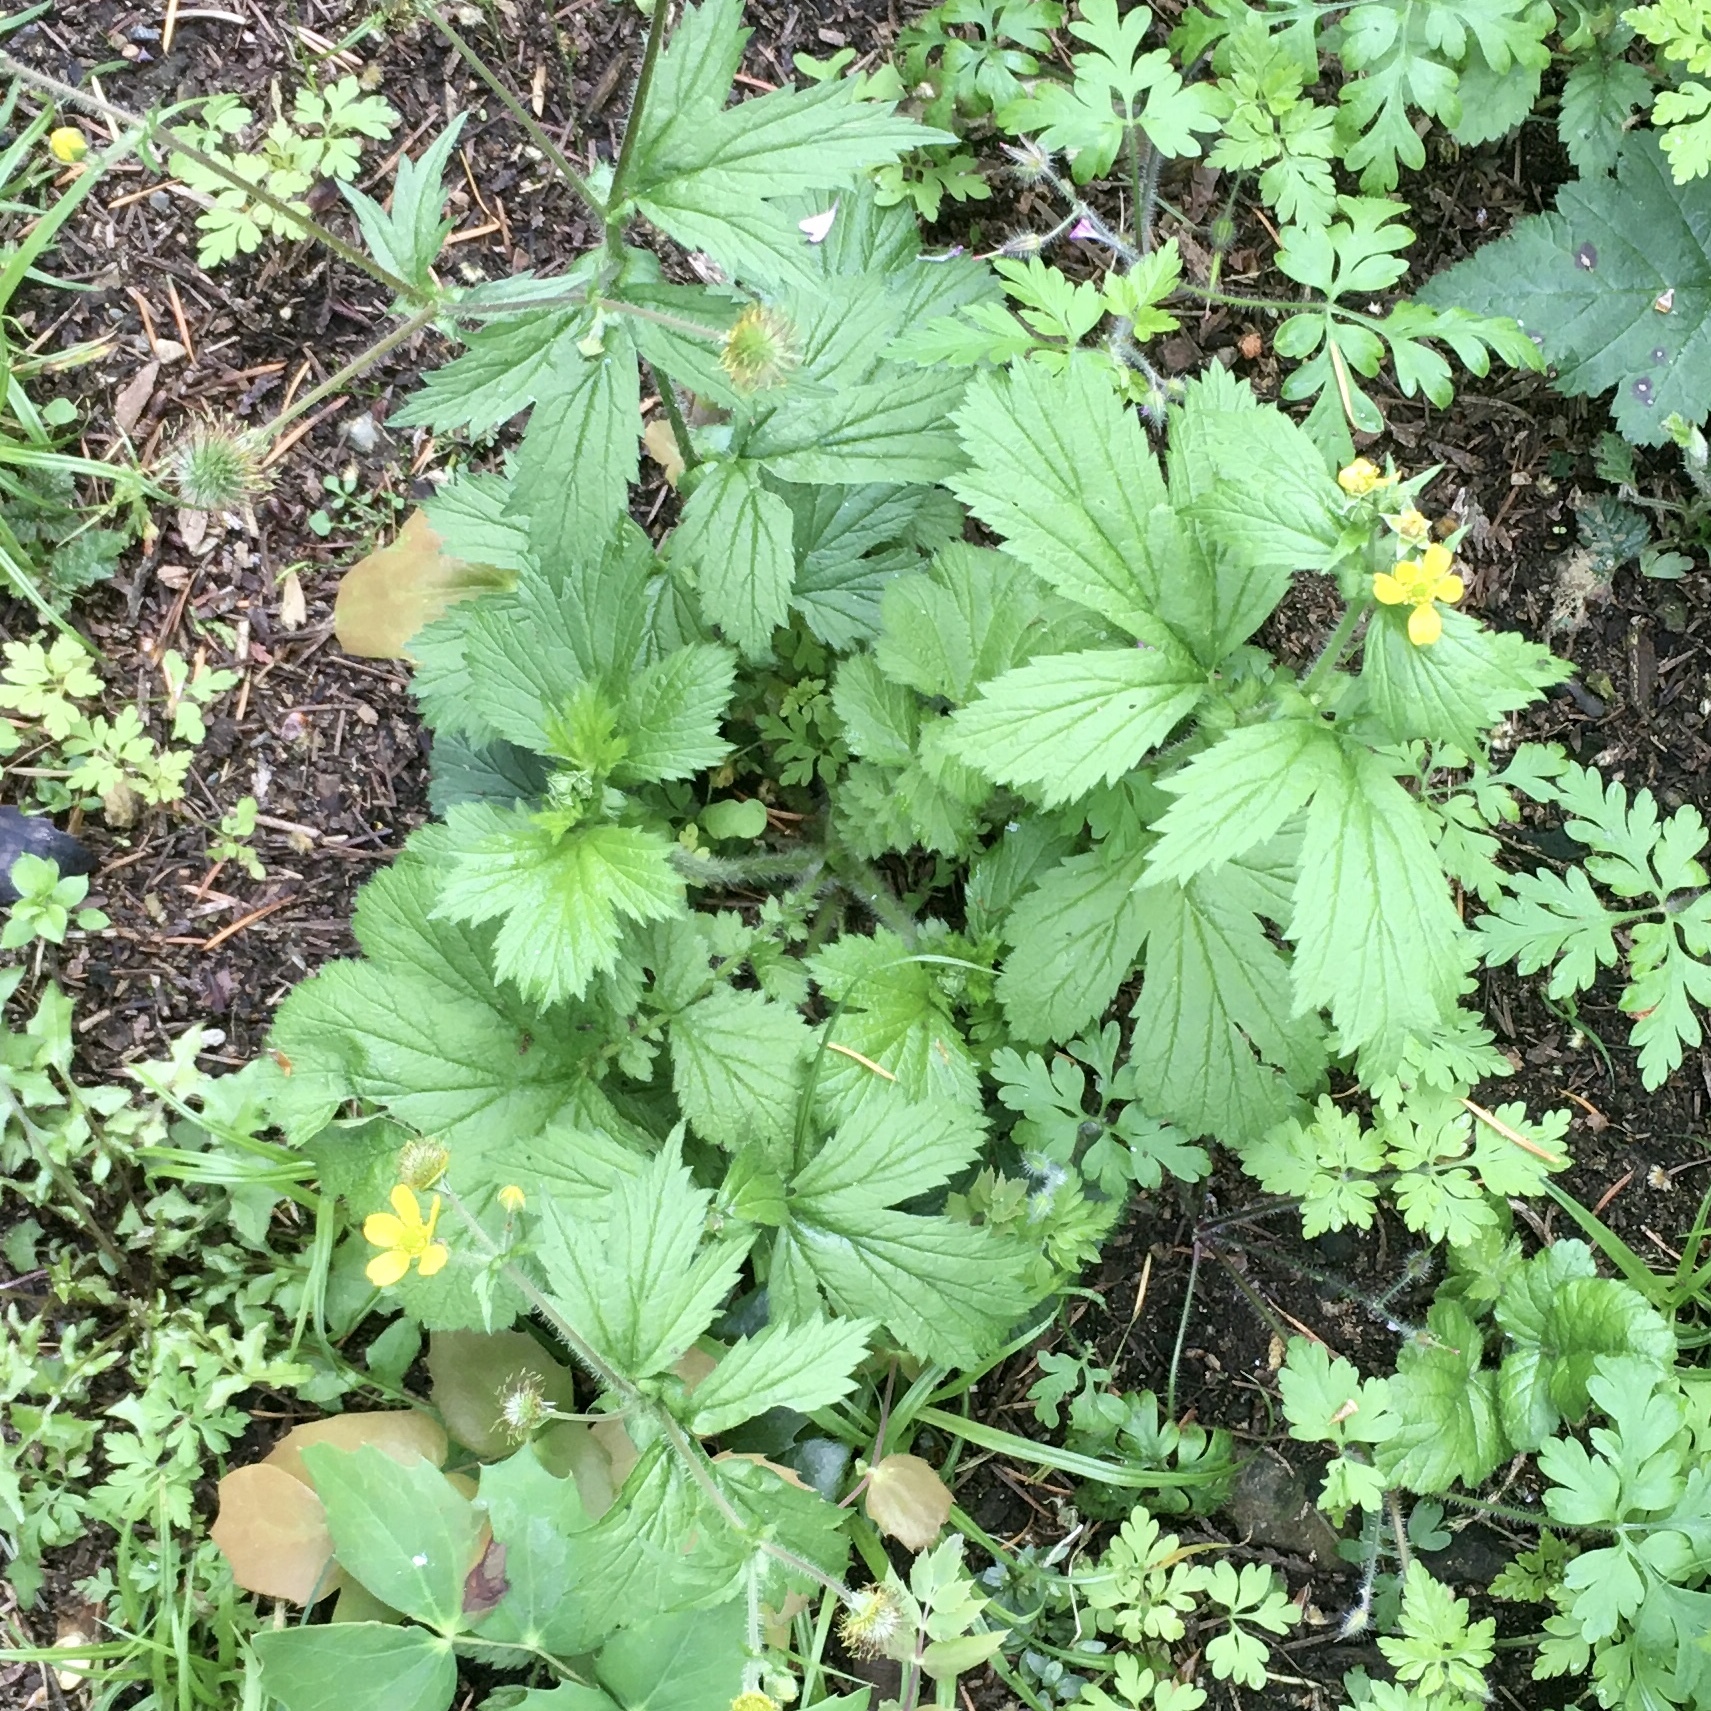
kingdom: Plantae
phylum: Tracheophyta
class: Magnoliopsida
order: Rosales
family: Rosaceae
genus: Geum
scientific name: Geum macrophyllum
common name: Large-leaved avens
